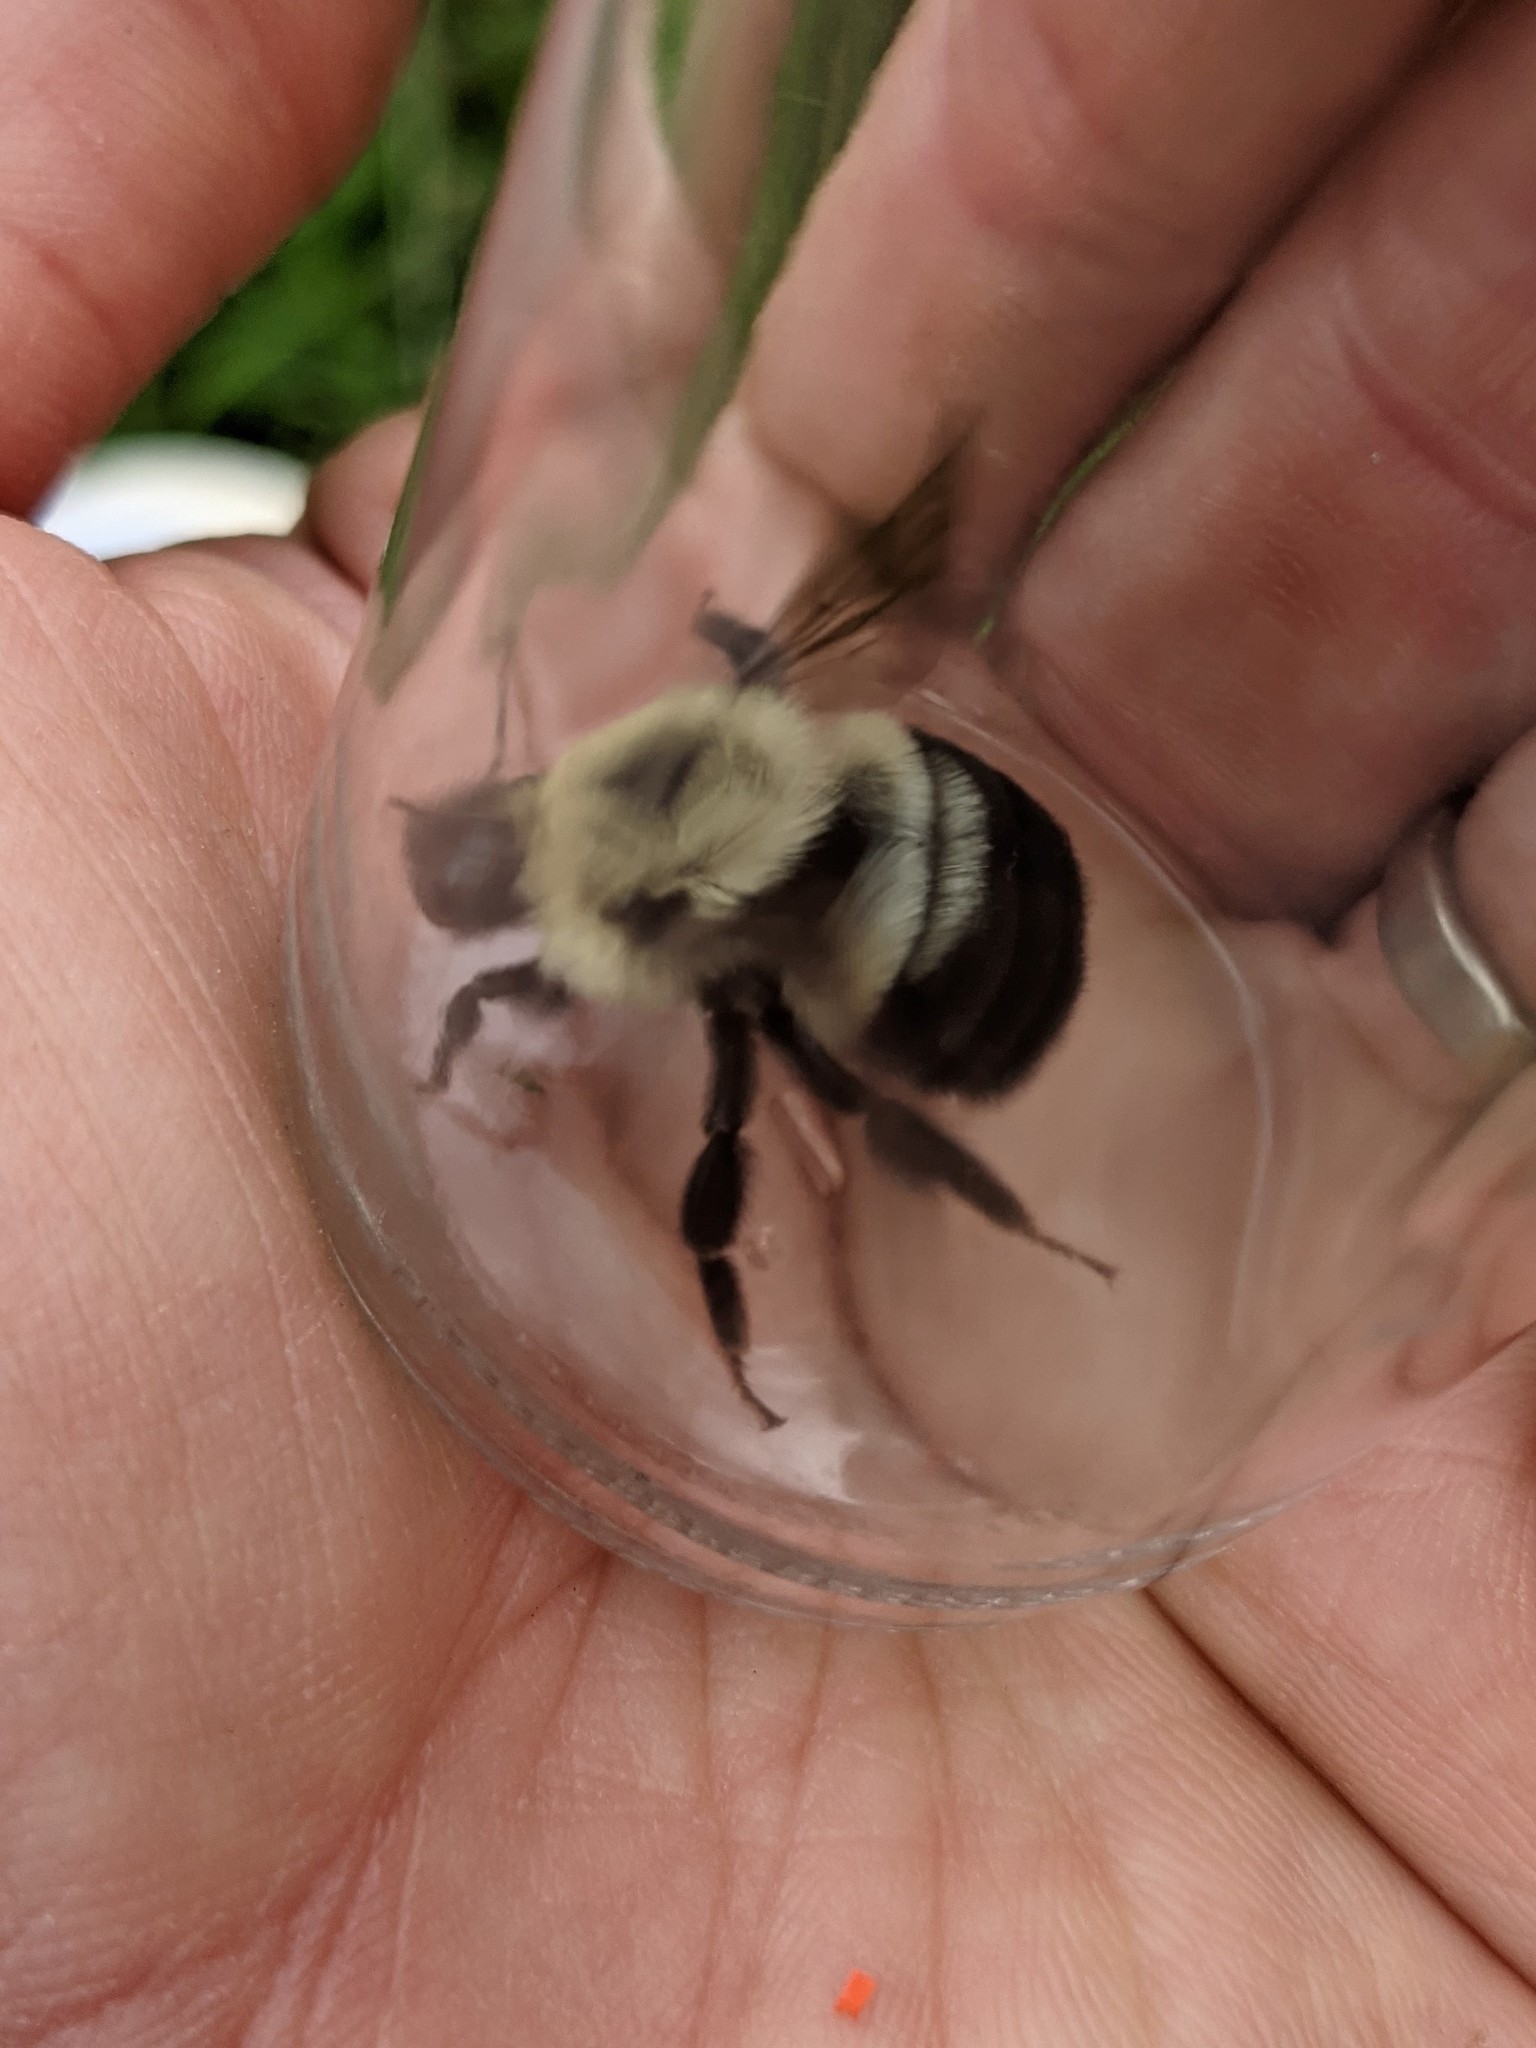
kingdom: Animalia
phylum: Arthropoda
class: Insecta
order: Hymenoptera
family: Apidae
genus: Bombus
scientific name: Bombus bimaculatus
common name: Two-spotted bumble bee
